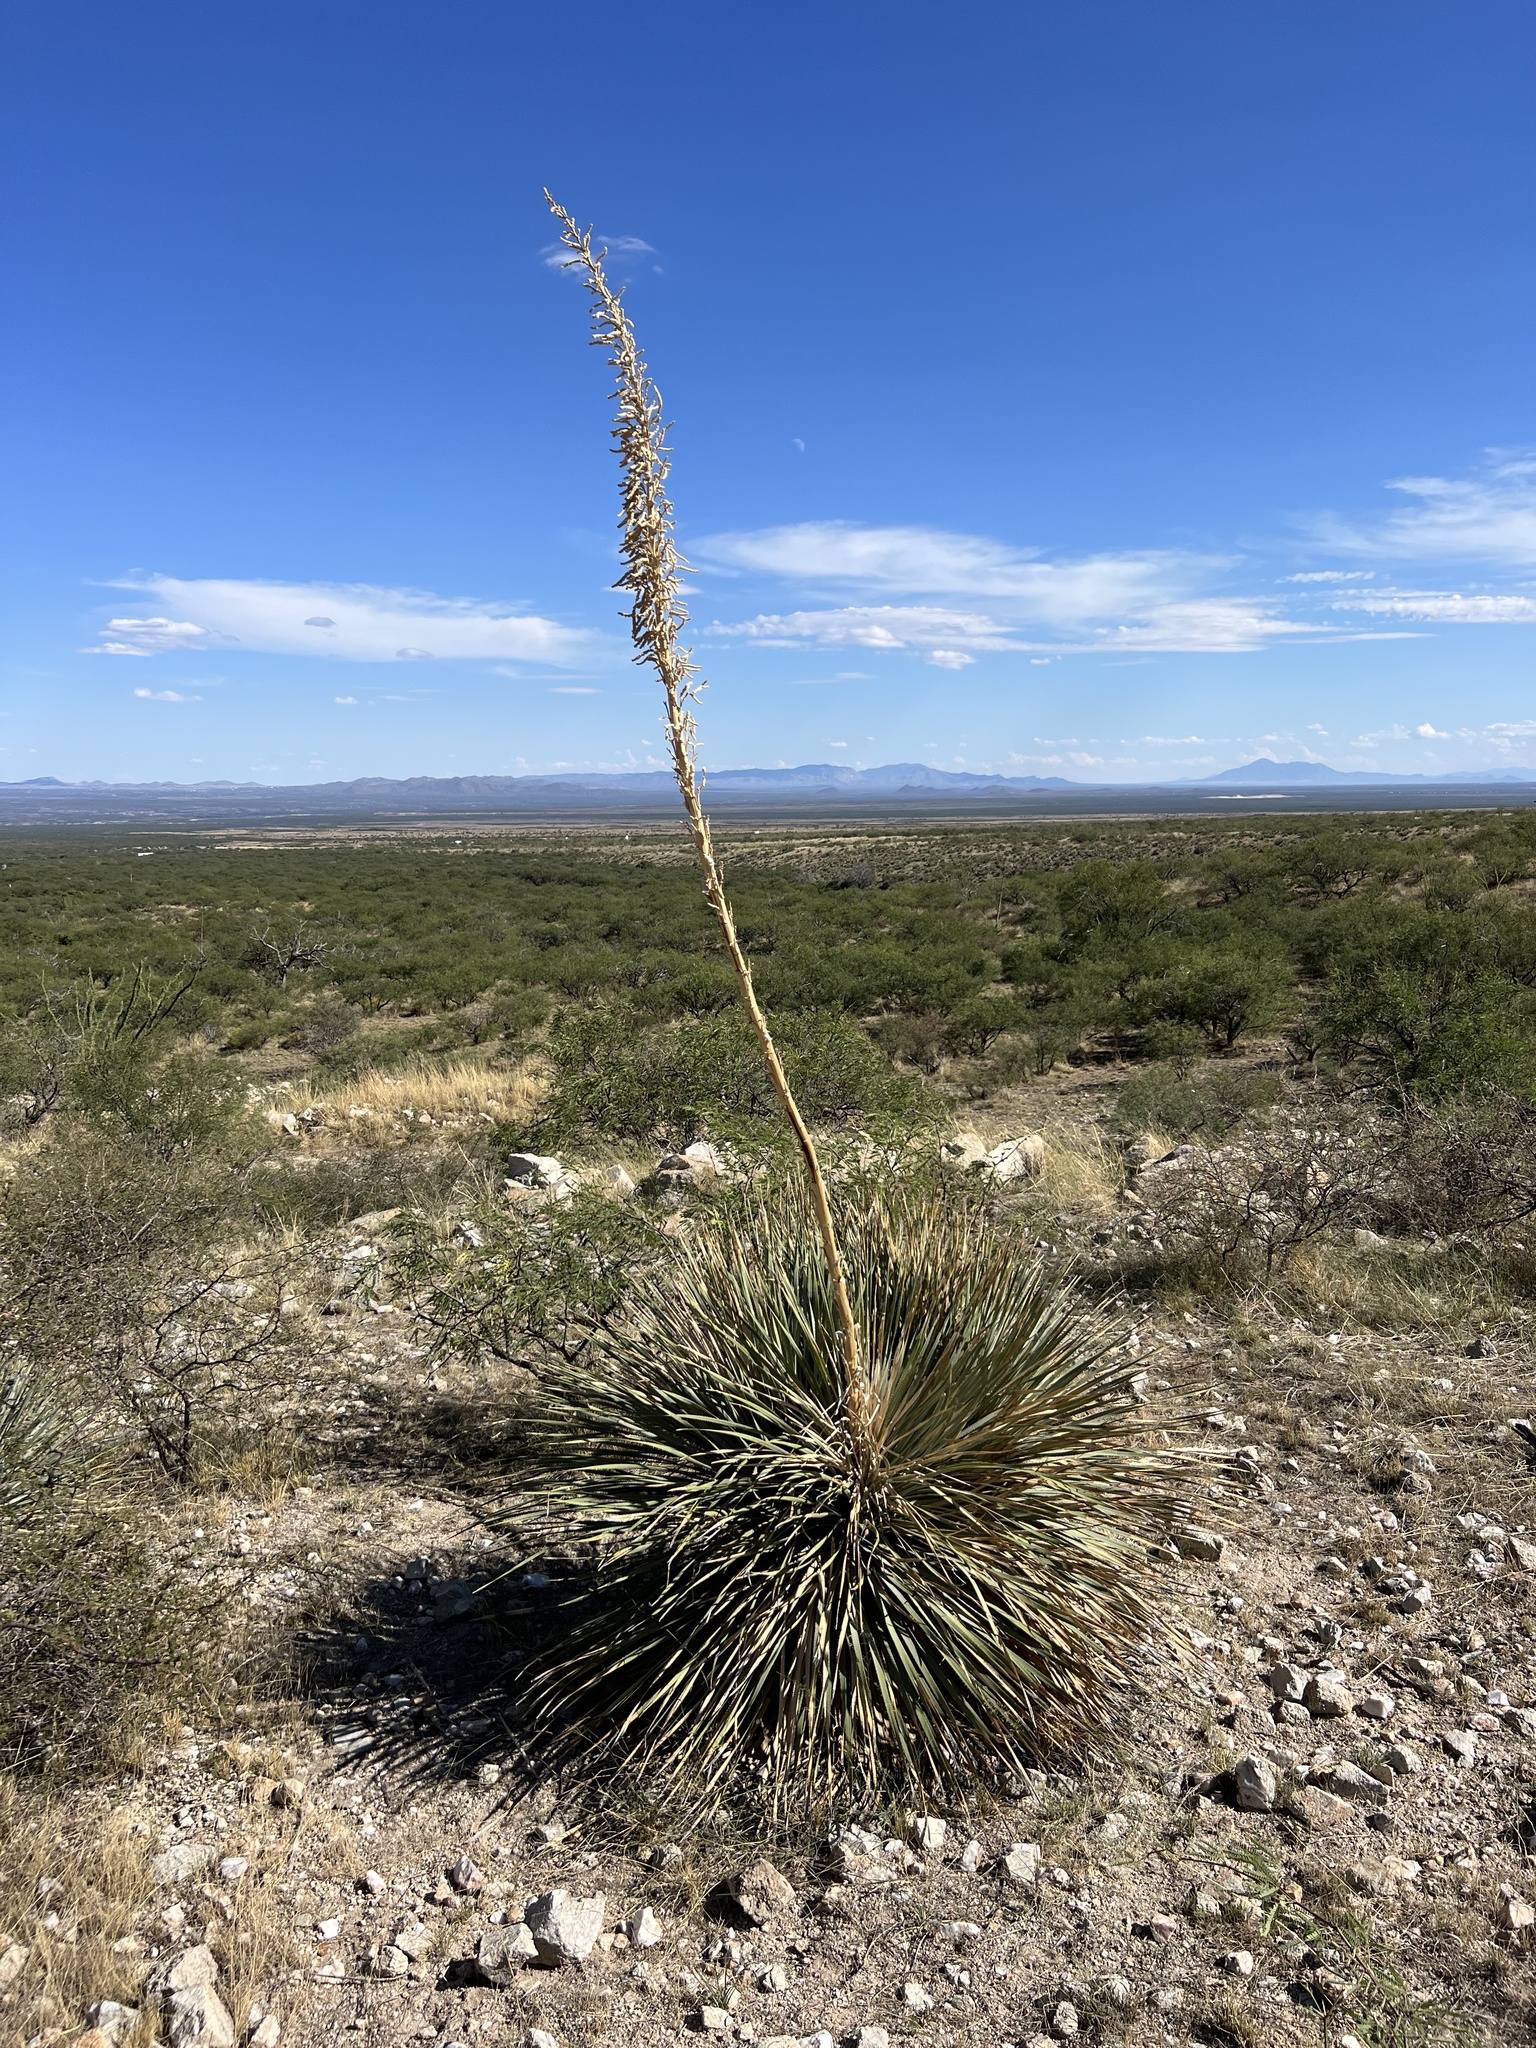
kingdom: Plantae
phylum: Tracheophyta
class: Liliopsida
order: Asparagales
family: Asparagaceae
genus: Dasylirion
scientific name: Dasylirion wheeleri
